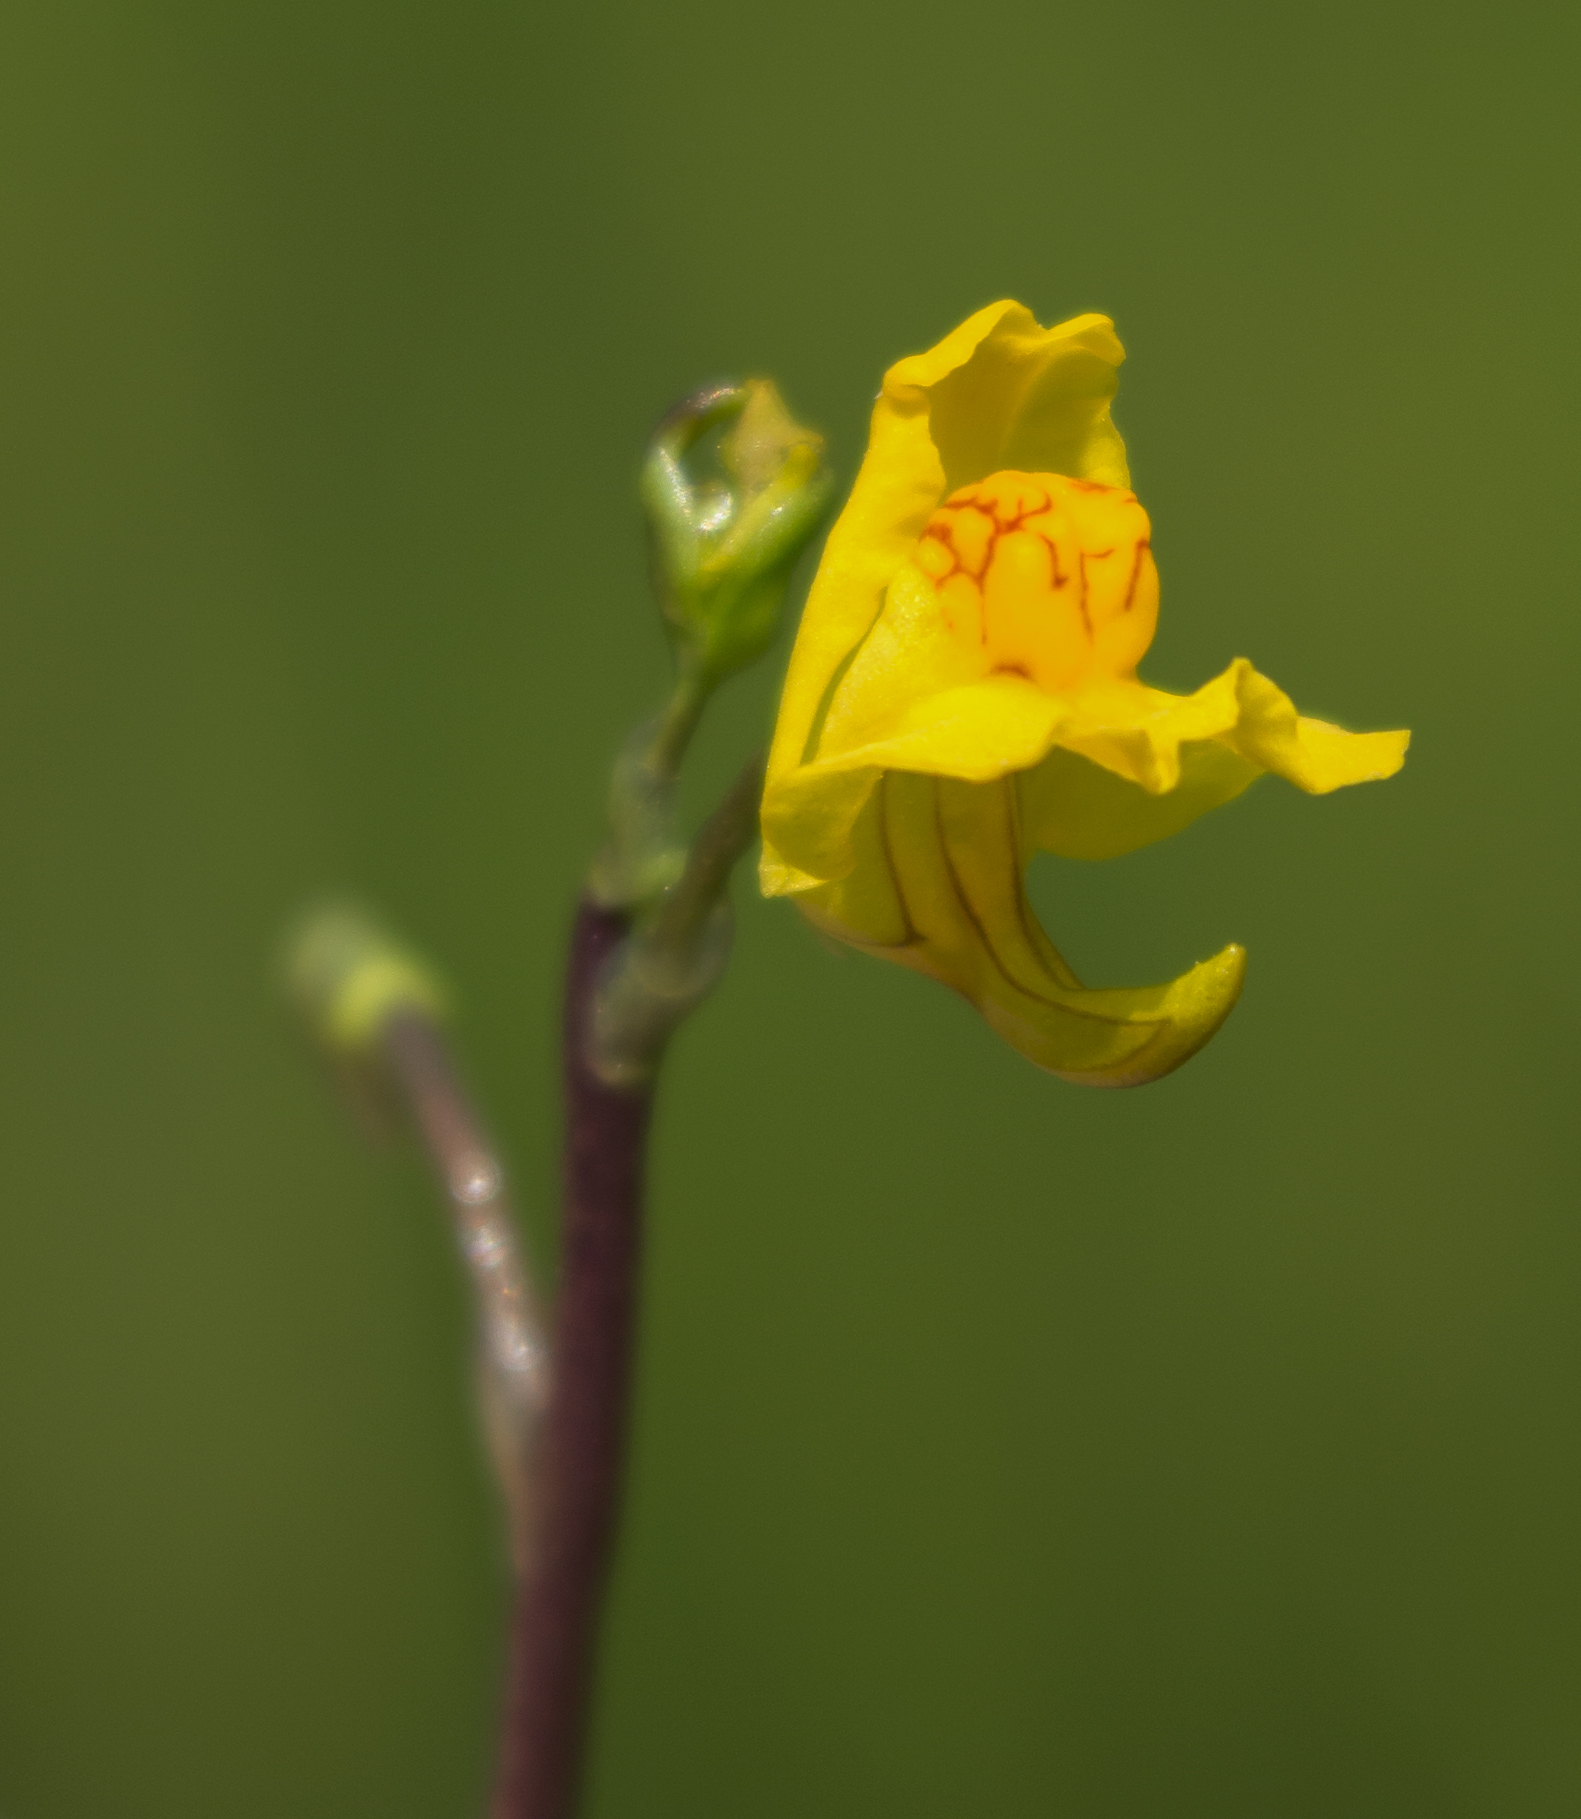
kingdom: Plantae
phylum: Tracheophyta
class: Magnoliopsida
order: Lamiales
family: Lentibulariaceae
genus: Utricularia
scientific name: Utricularia macrorhiza
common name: Common bladderwort
